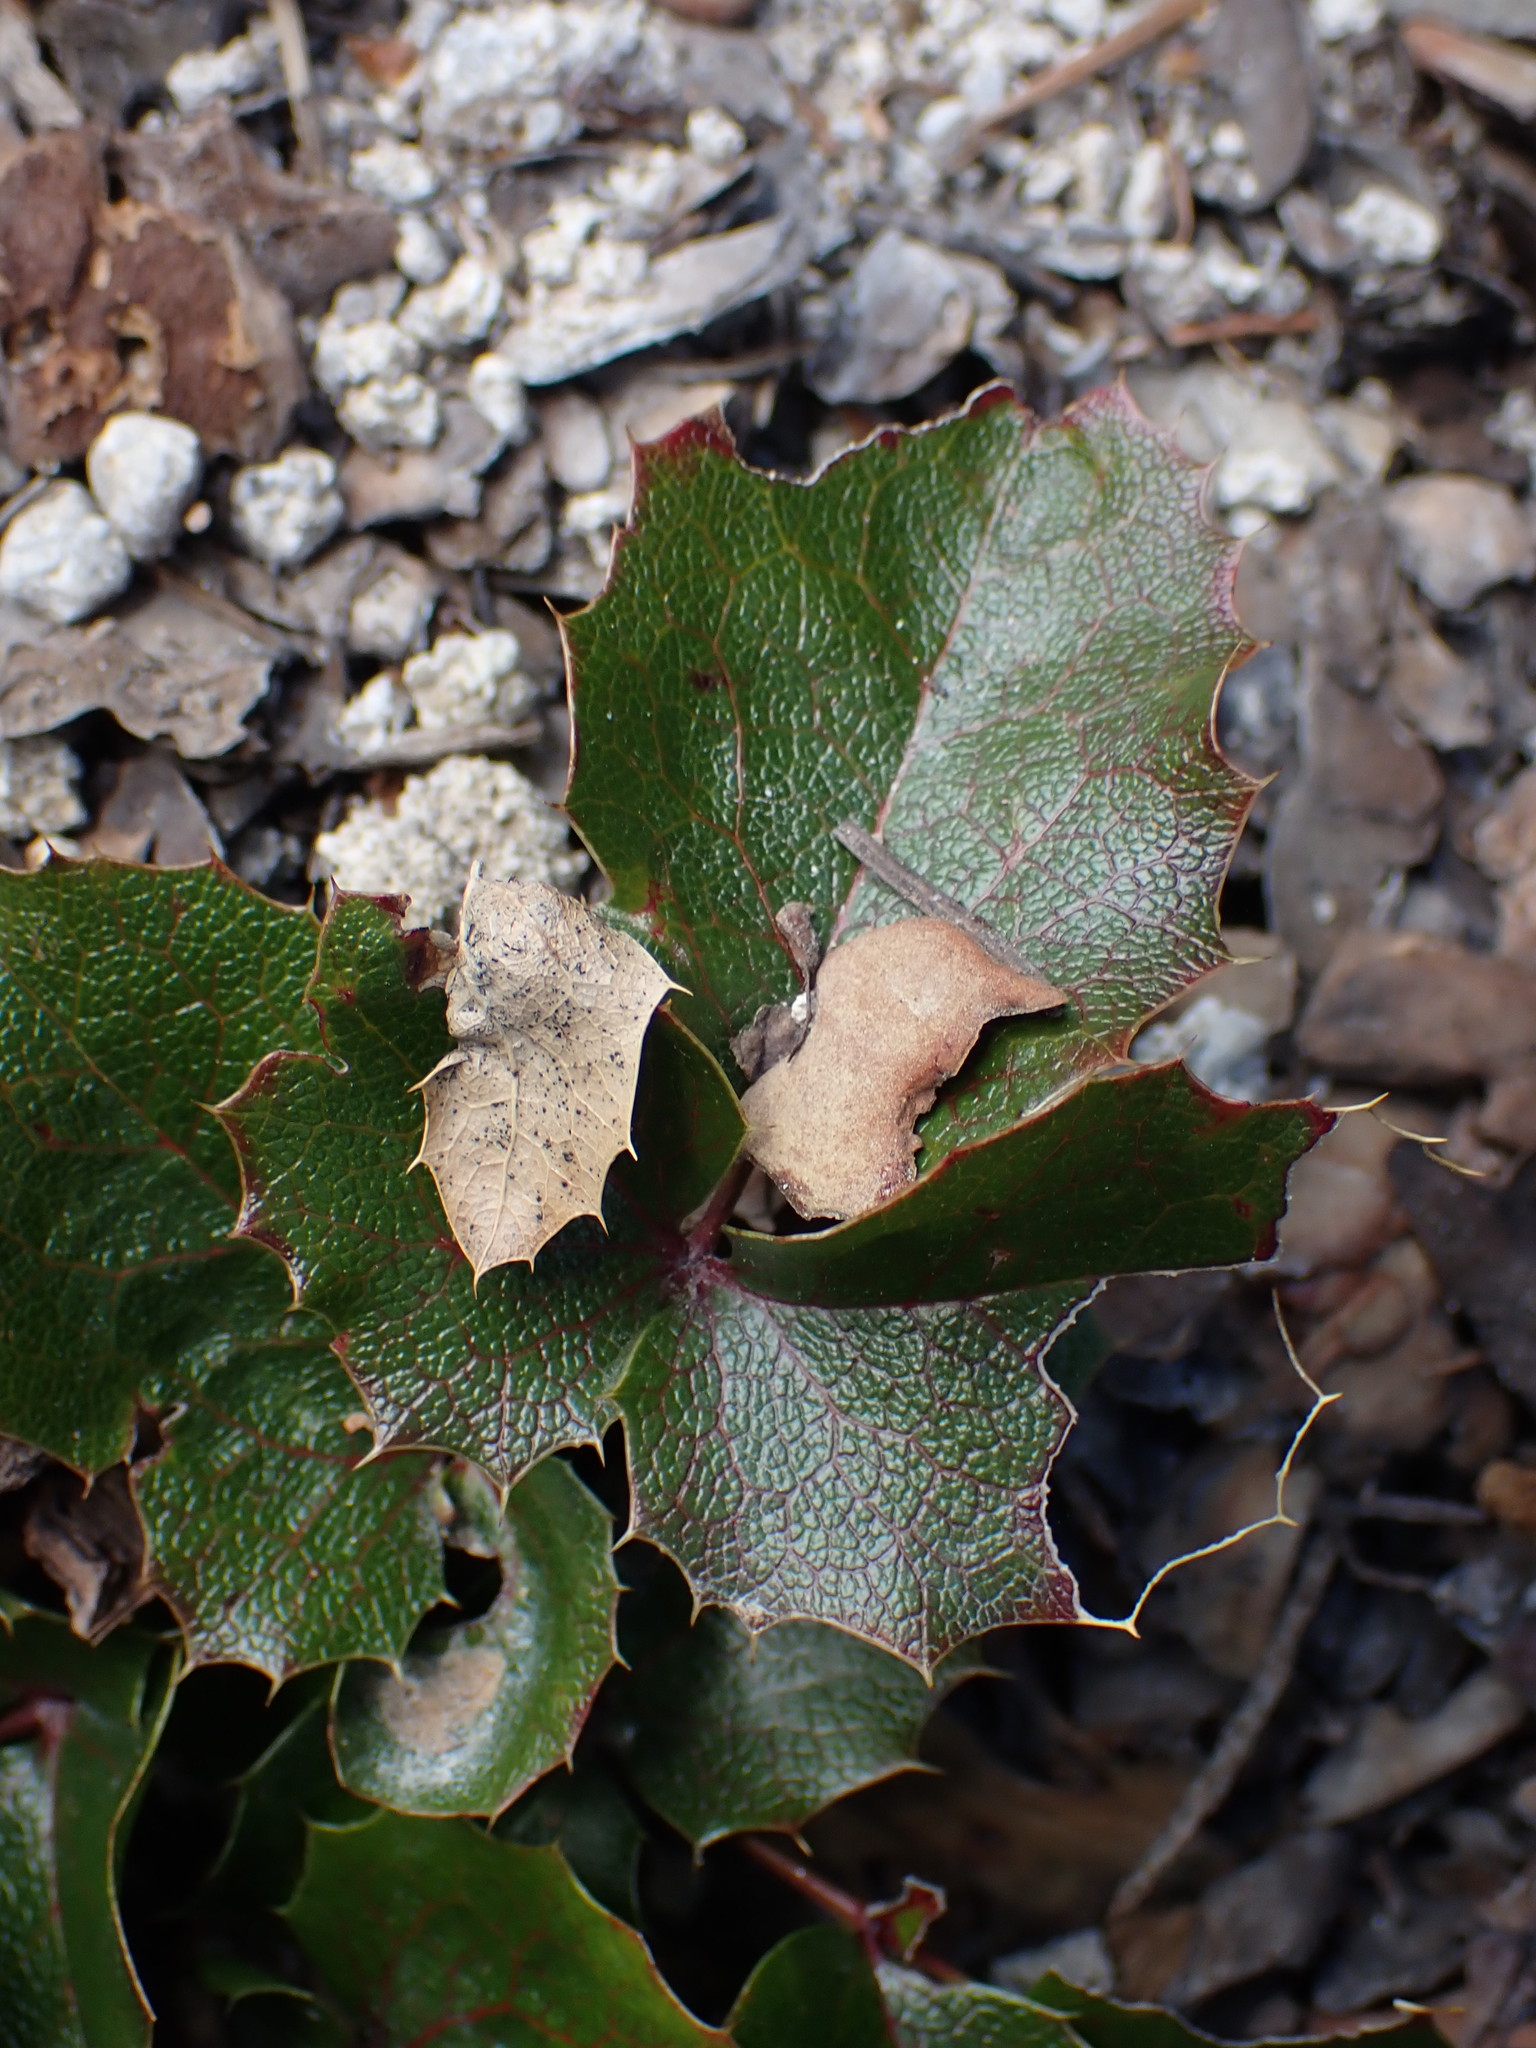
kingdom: Plantae
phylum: Tracheophyta
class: Magnoliopsida
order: Ranunculales
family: Berberidaceae
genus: Mahonia
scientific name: Mahonia aquifolium
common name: Oregon-grape
